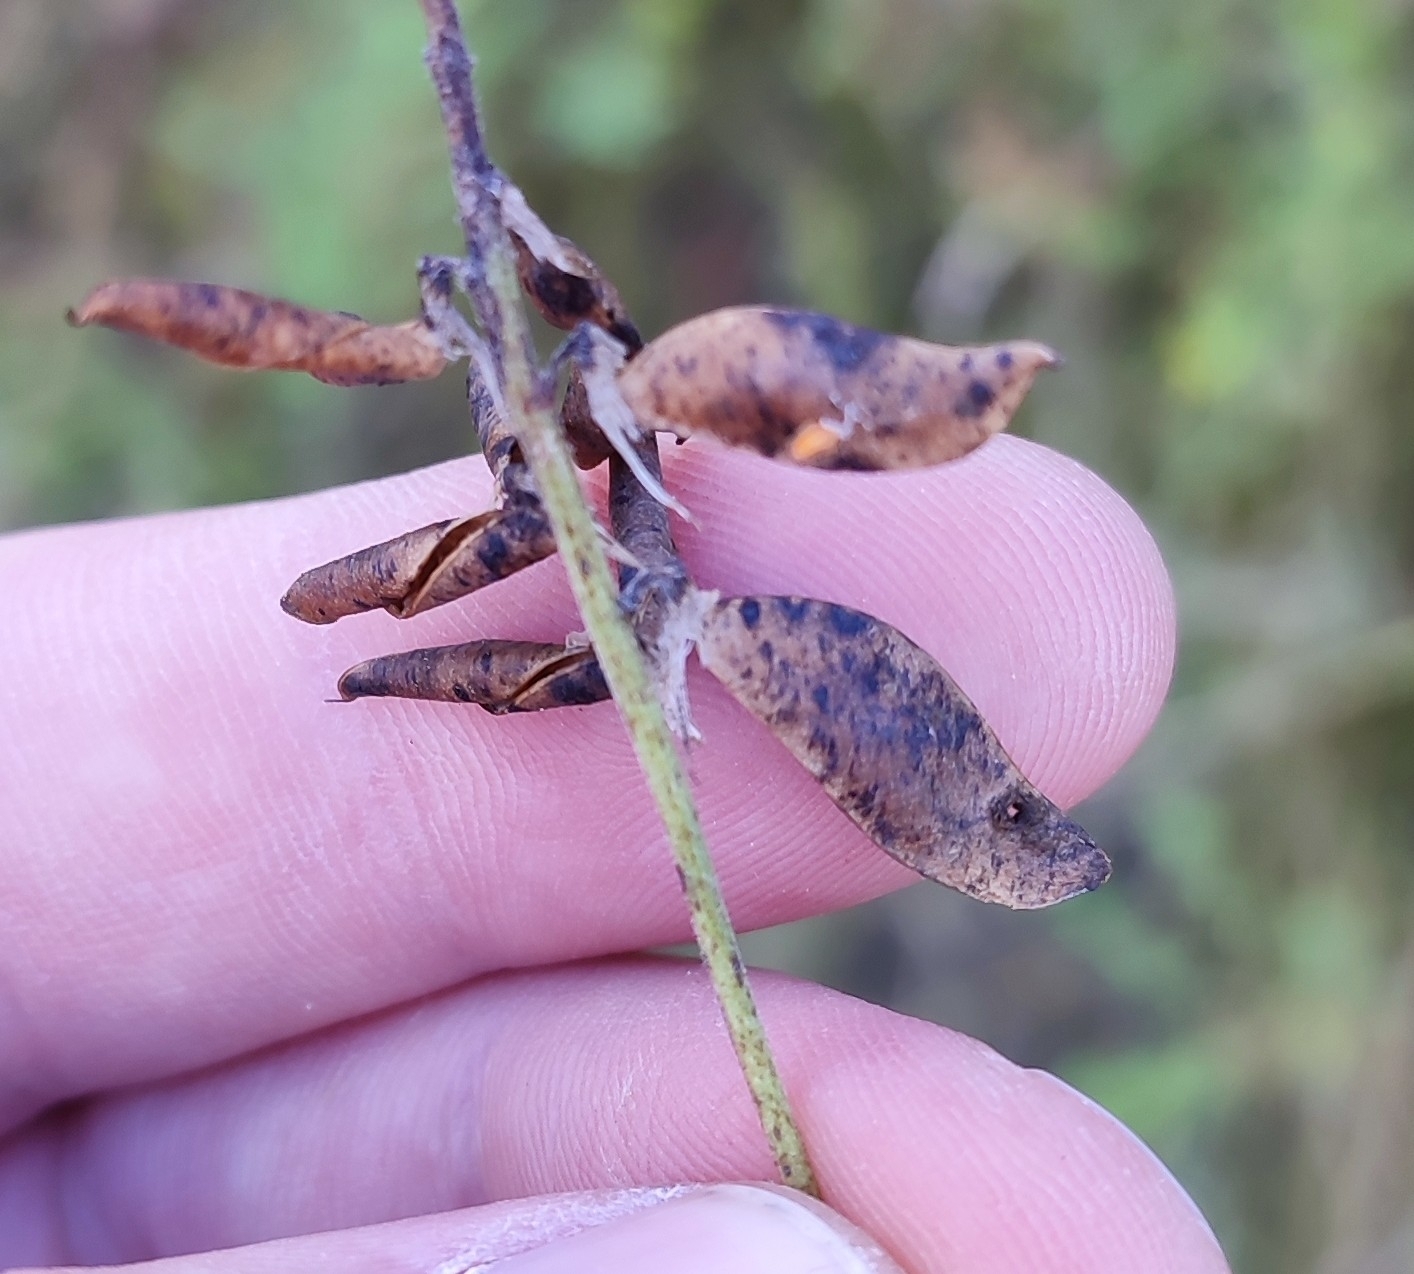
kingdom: Plantae
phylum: Tracheophyta
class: Magnoliopsida
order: Fabales
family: Fabaceae
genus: Vicia
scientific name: Vicia cracca
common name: Bird vetch
